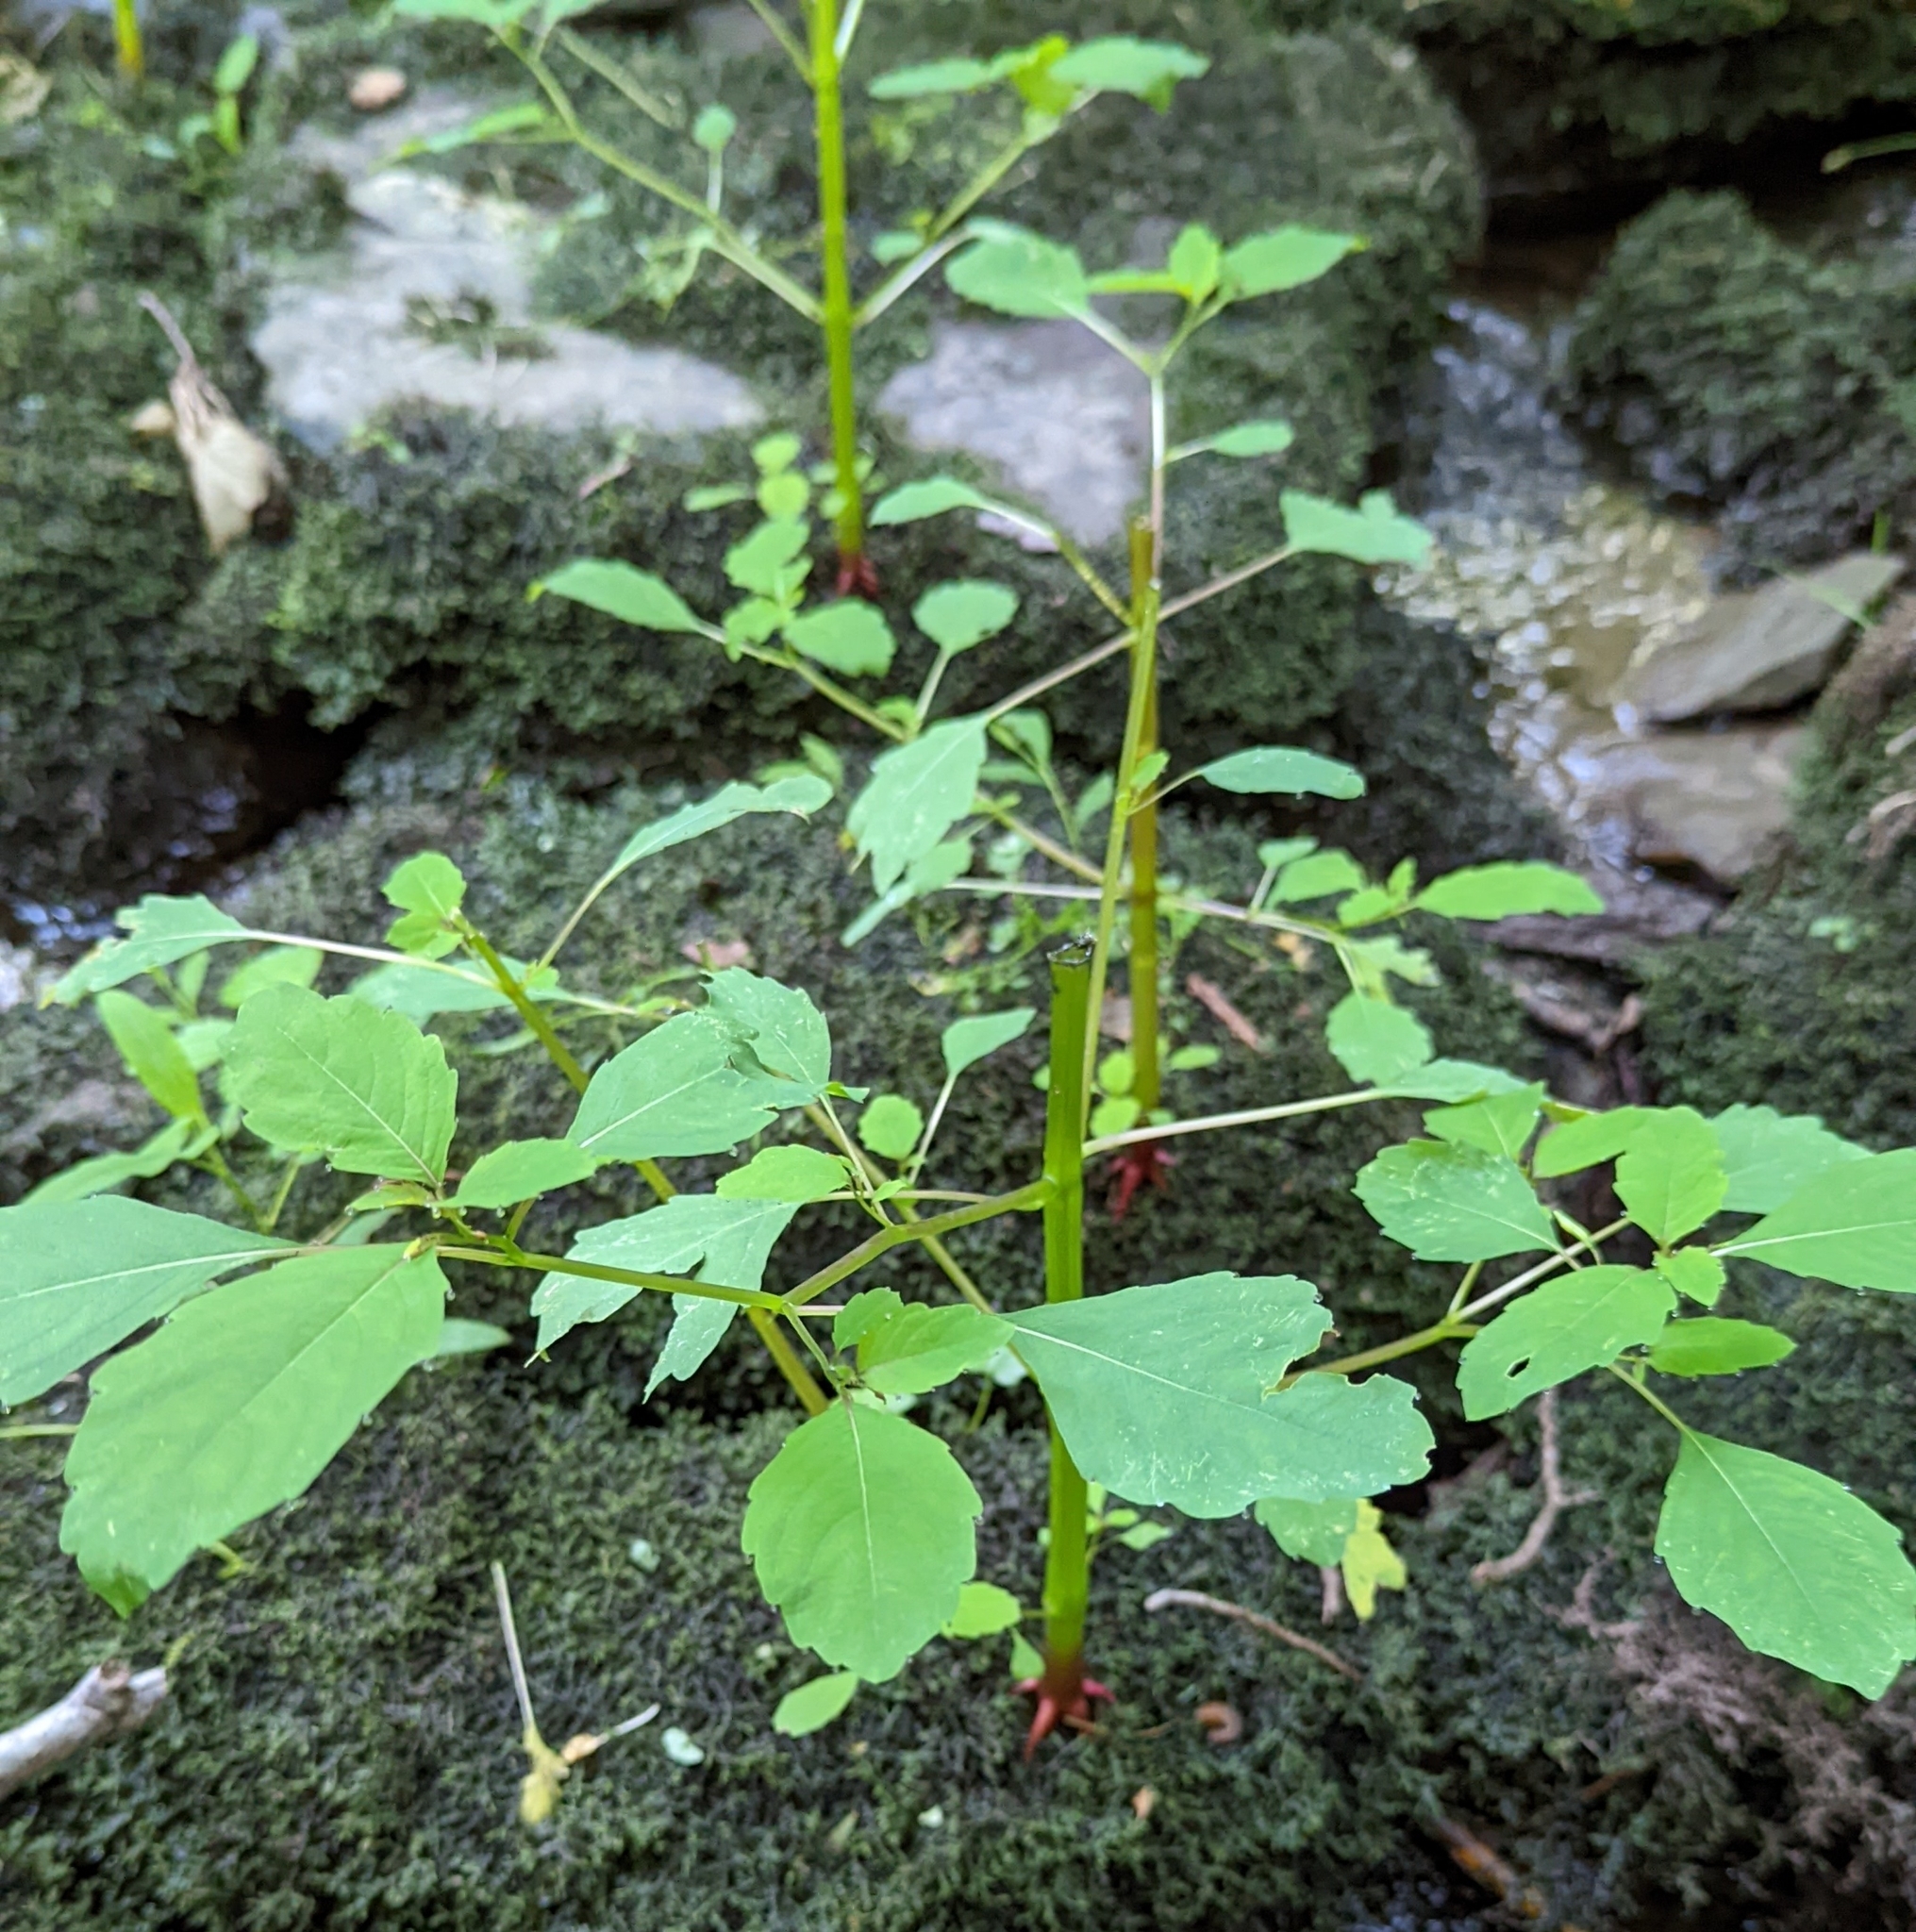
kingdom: Plantae
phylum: Tracheophyta
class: Magnoliopsida
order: Ericales
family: Balsaminaceae
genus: Impatiens
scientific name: Impatiens capensis
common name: Orange balsam
